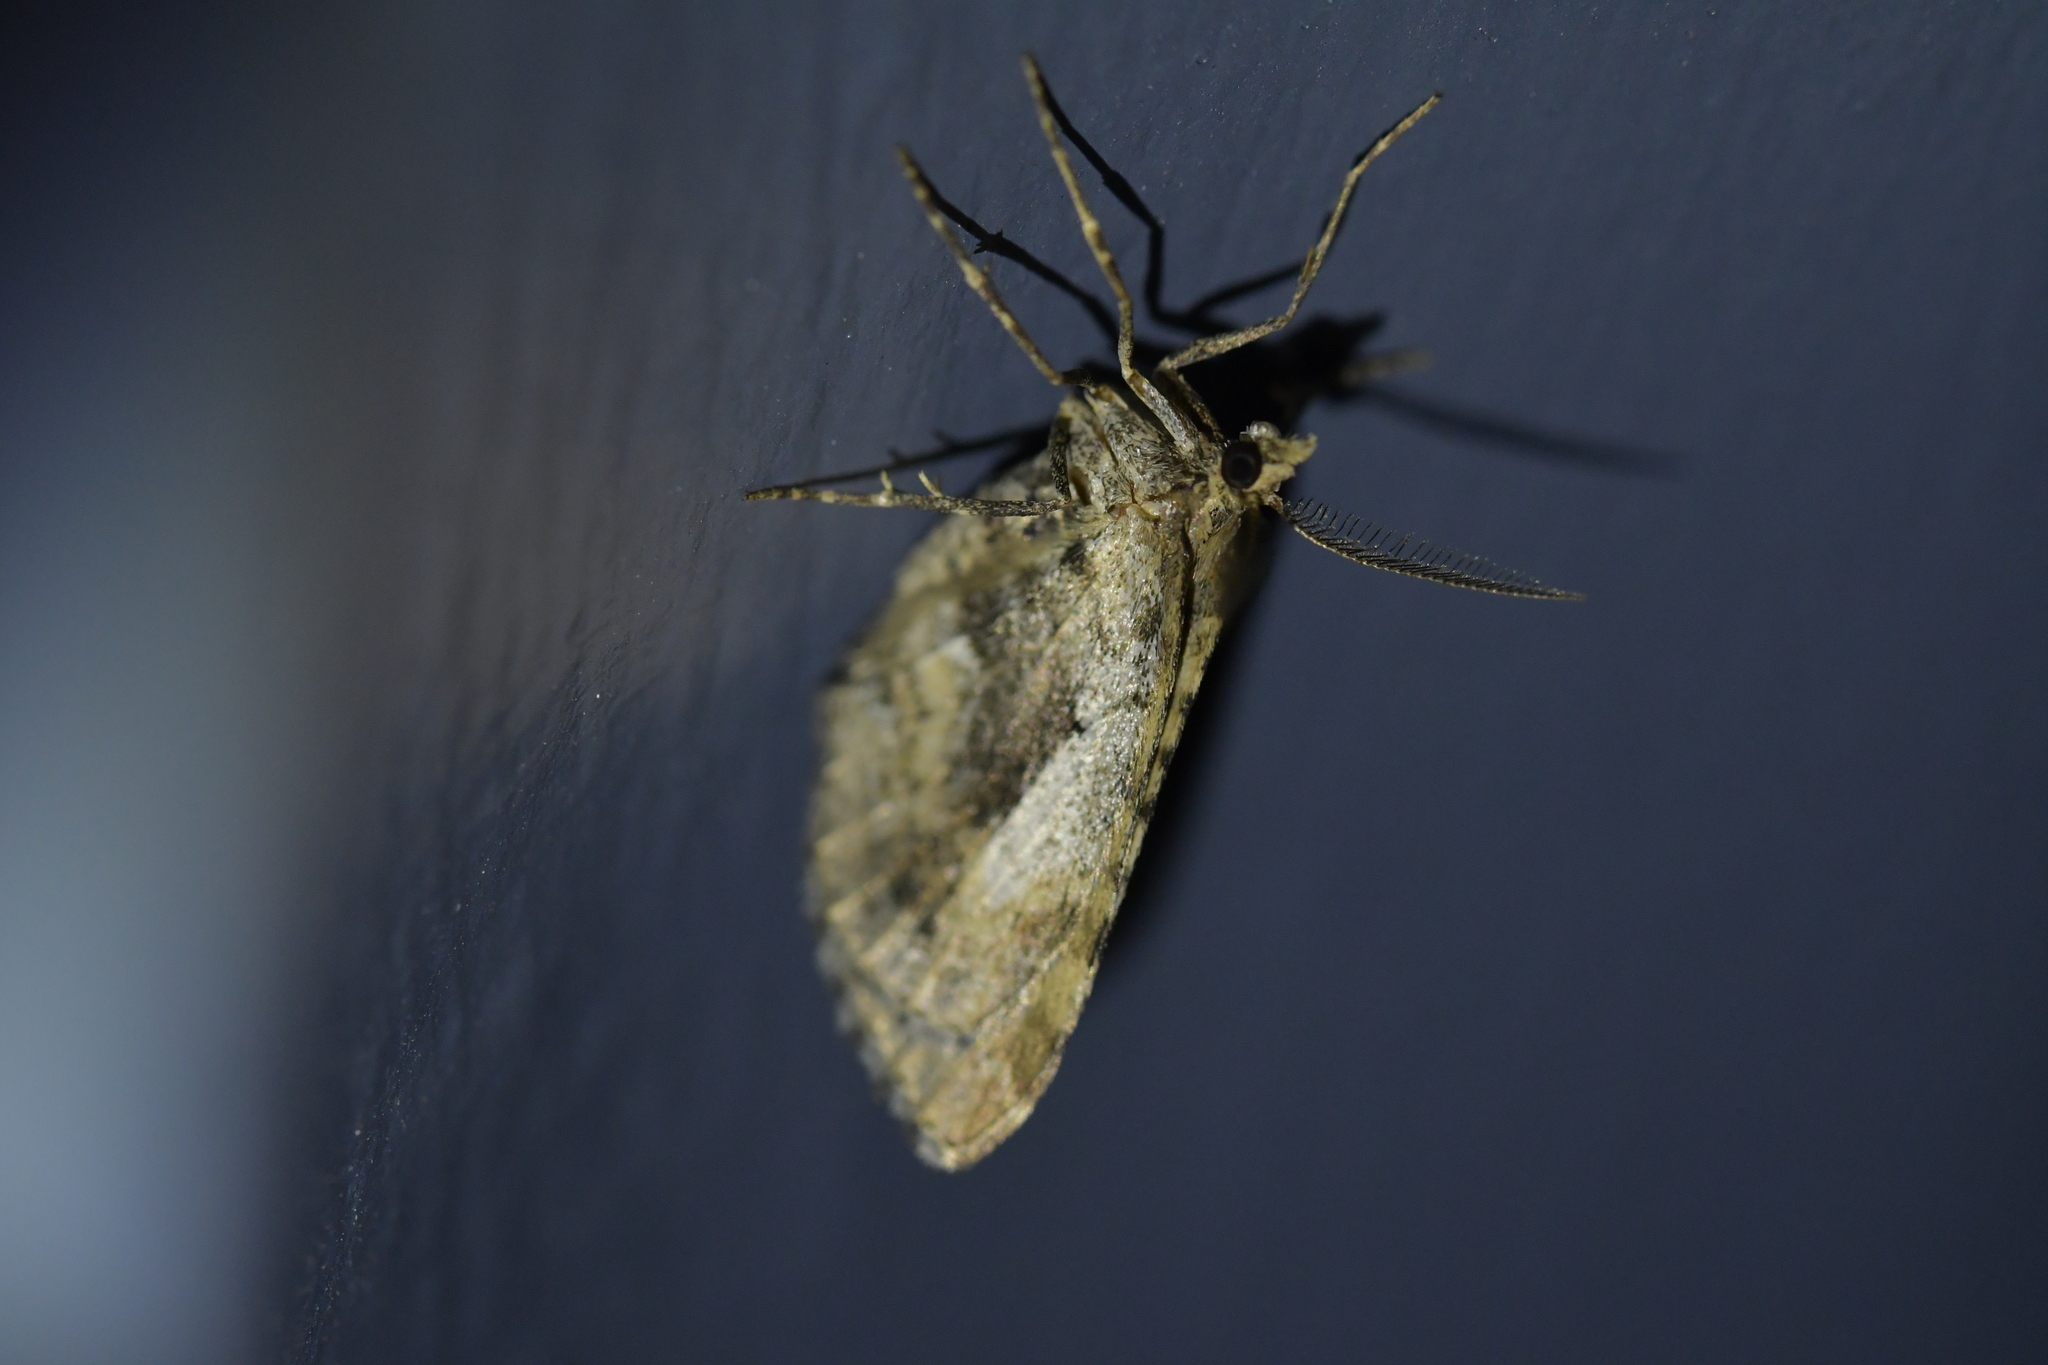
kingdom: Animalia
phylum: Arthropoda
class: Insecta
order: Lepidoptera
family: Geometridae
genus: Asaphodes
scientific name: Asaphodes aegrota
